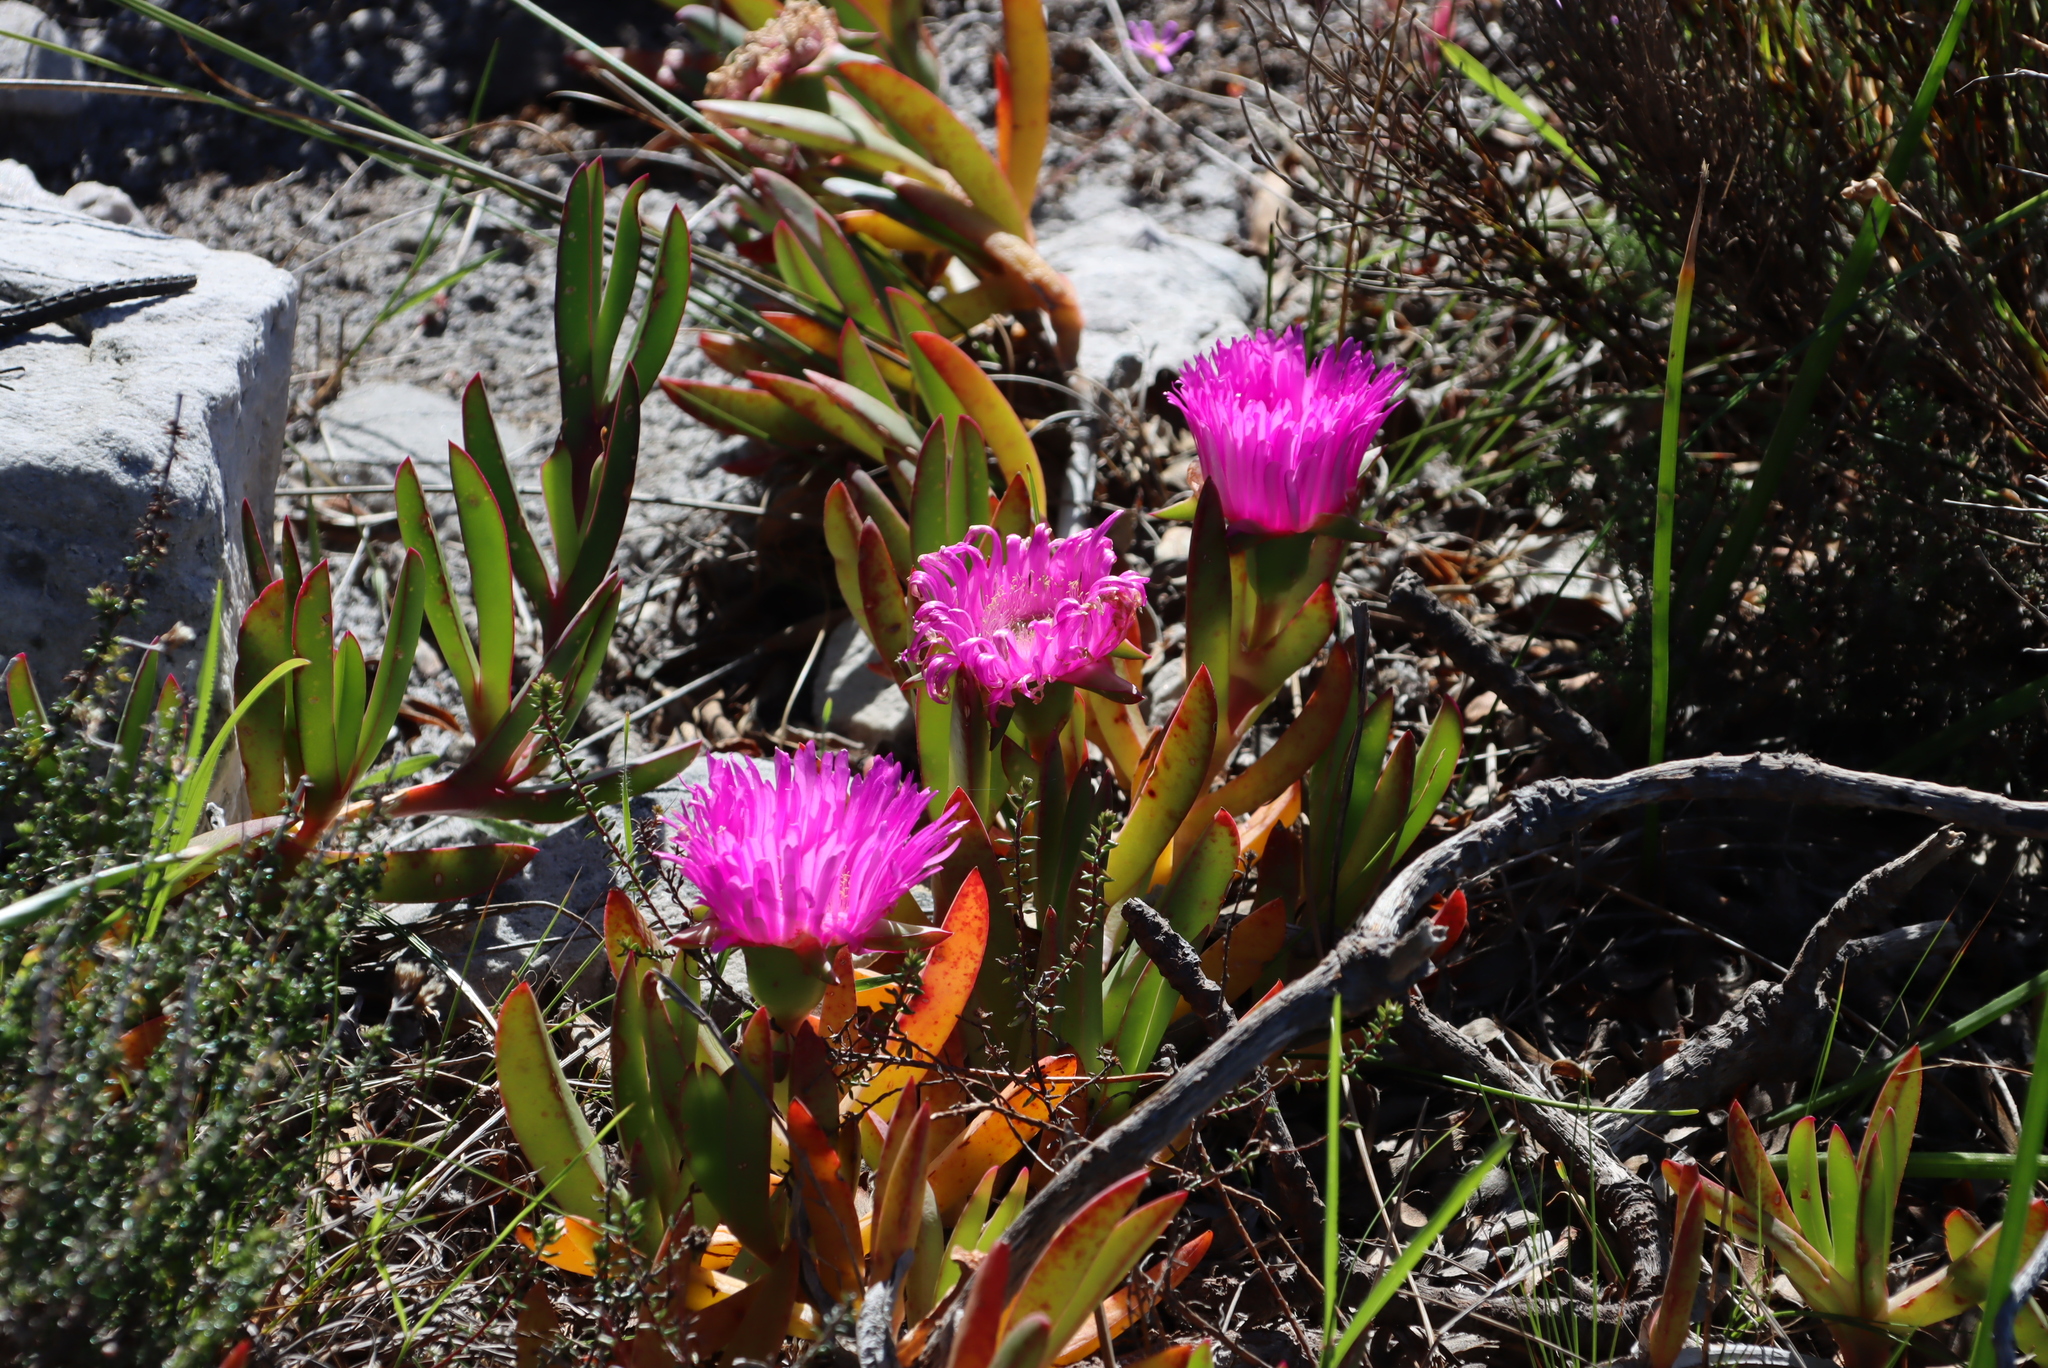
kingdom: Plantae
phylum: Tracheophyta
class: Magnoliopsida
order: Caryophyllales
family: Aizoaceae
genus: Carpobrotus
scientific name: Carpobrotus acinaciformis
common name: Sally-my-handsome
